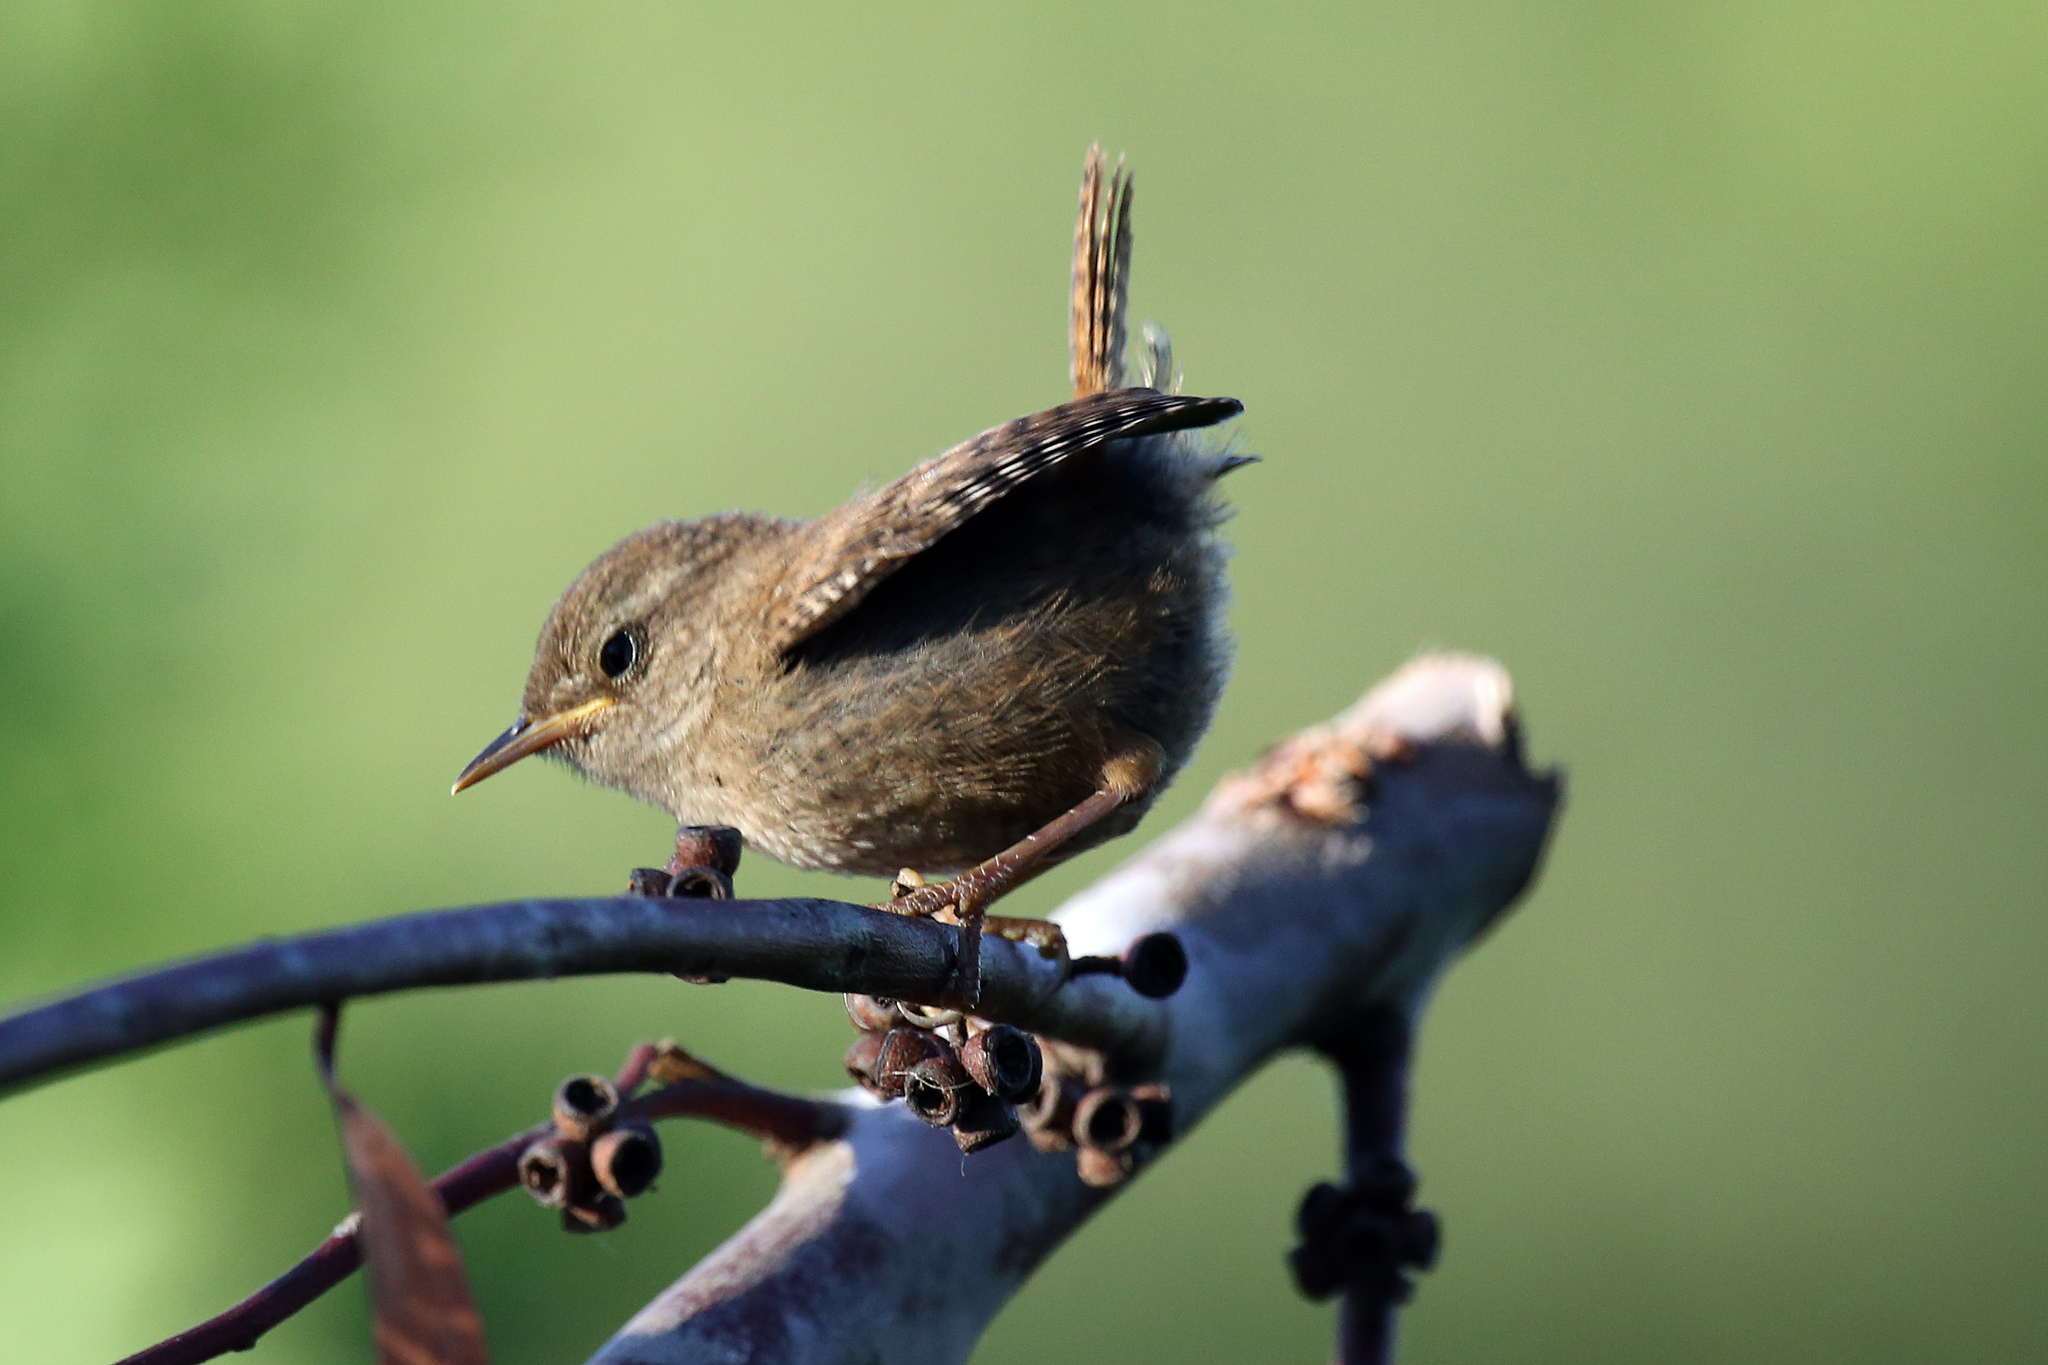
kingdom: Animalia
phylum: Chordata
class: Aves
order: Passeriformes
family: Troglodytidae
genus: Troglodytes
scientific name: Troglodytes troglodytes
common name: Eurasian wren
